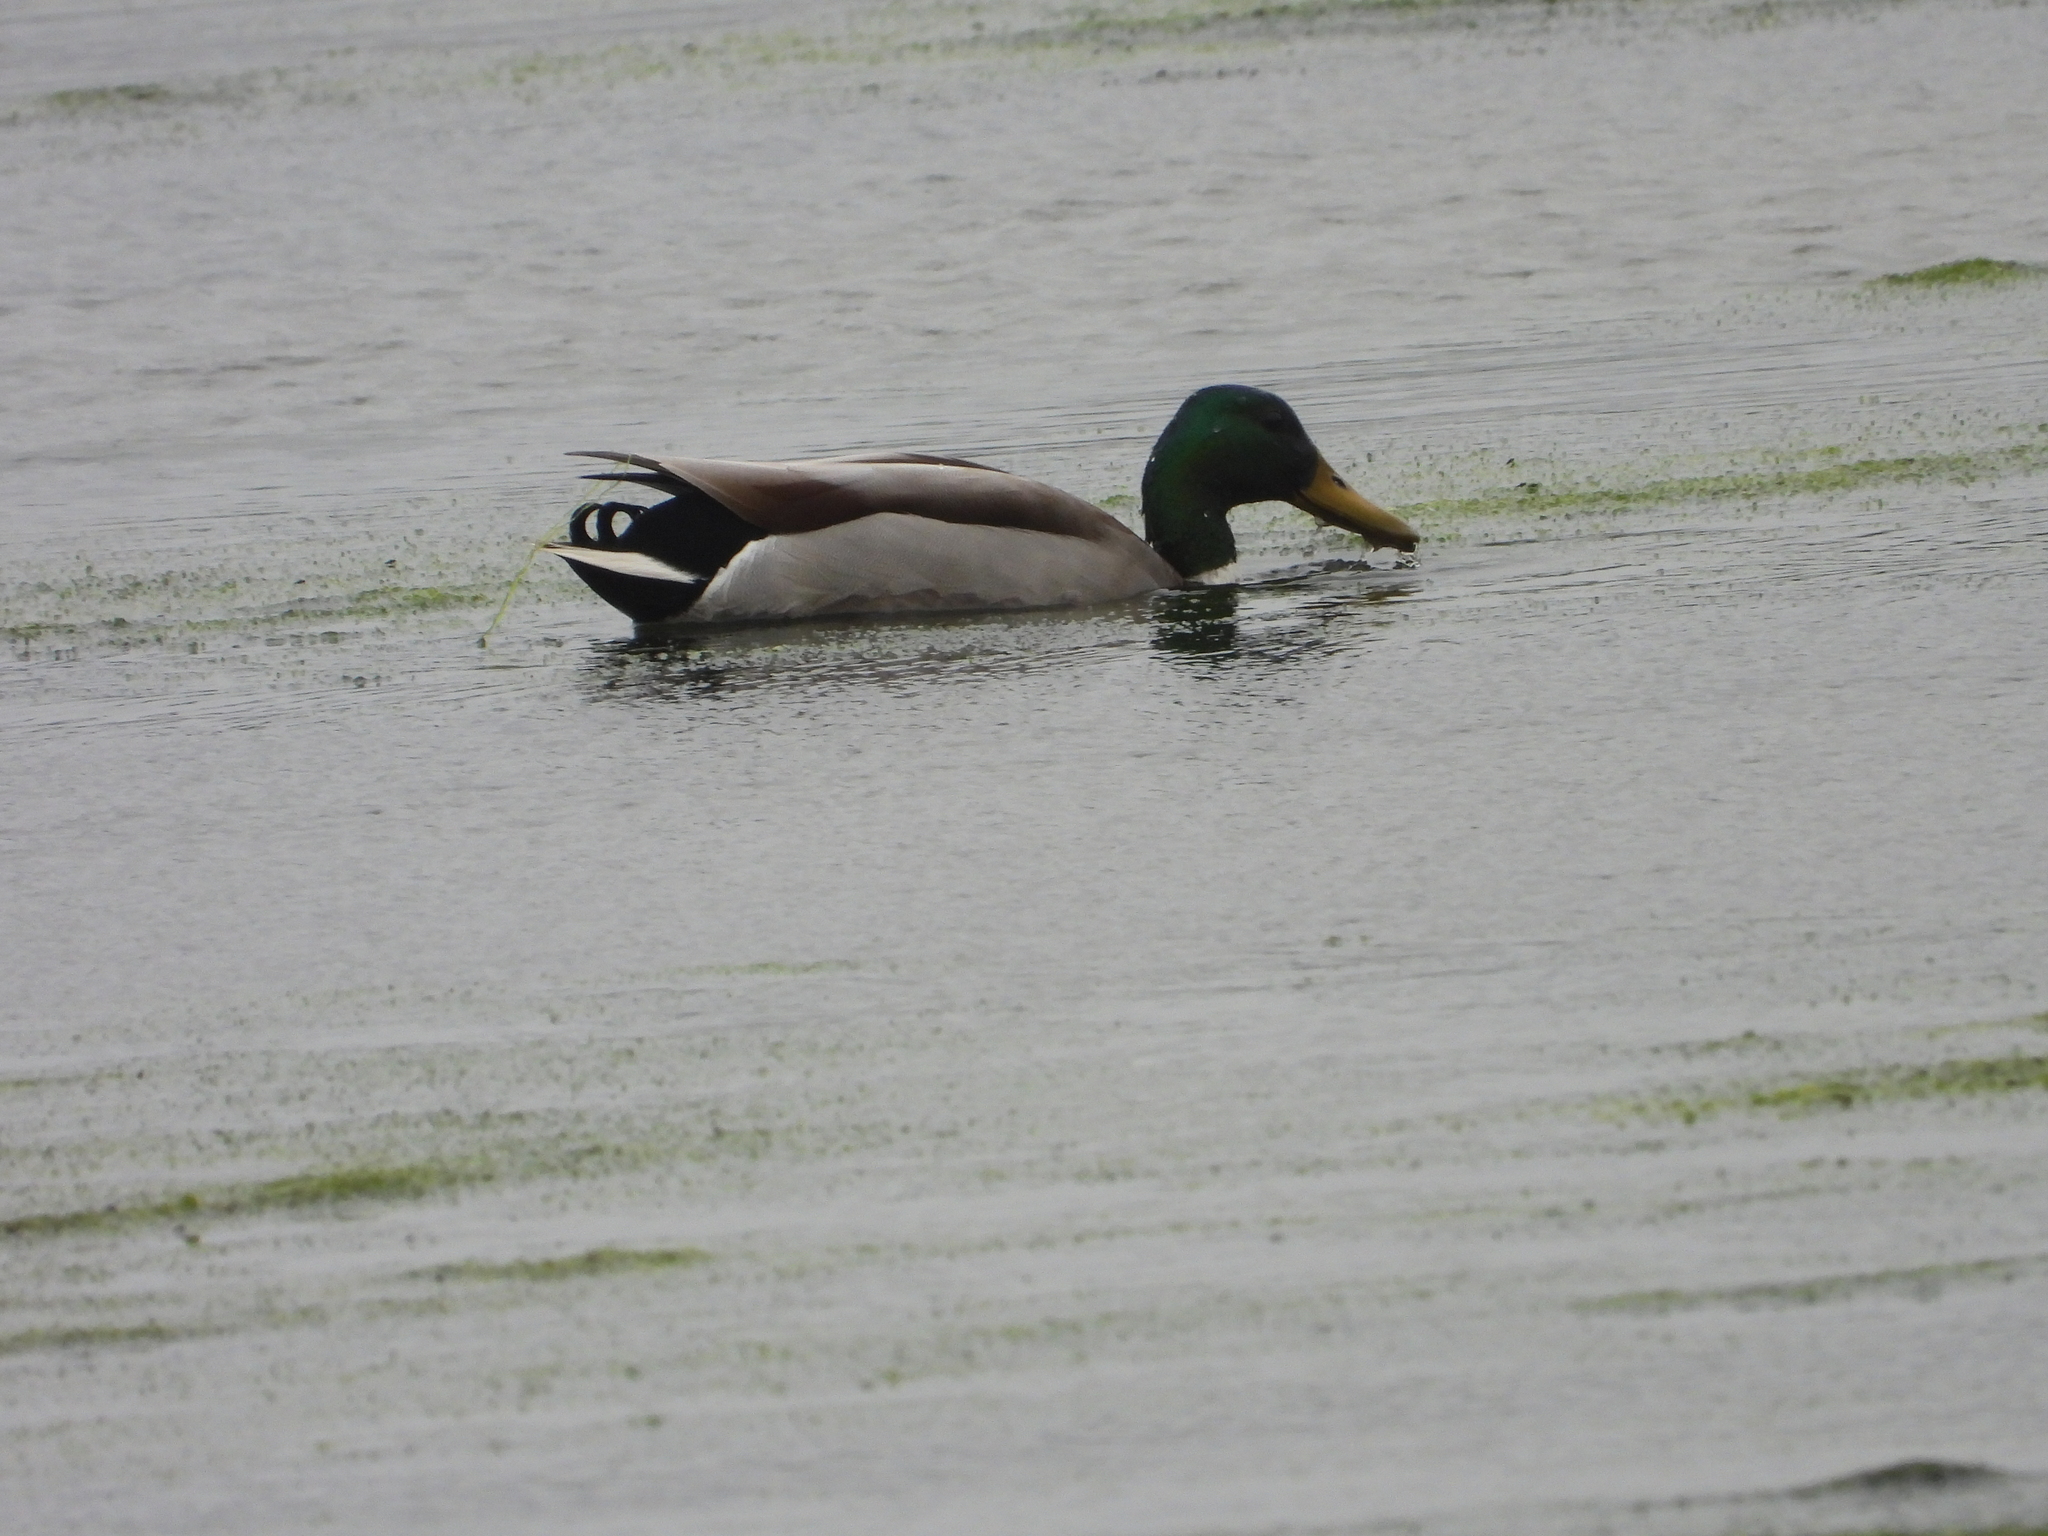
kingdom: Animalia
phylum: Chordata
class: Aves
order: Anseriformes
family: Anatidae
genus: Anas
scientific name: Anas platyrhynchos
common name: Mallard
